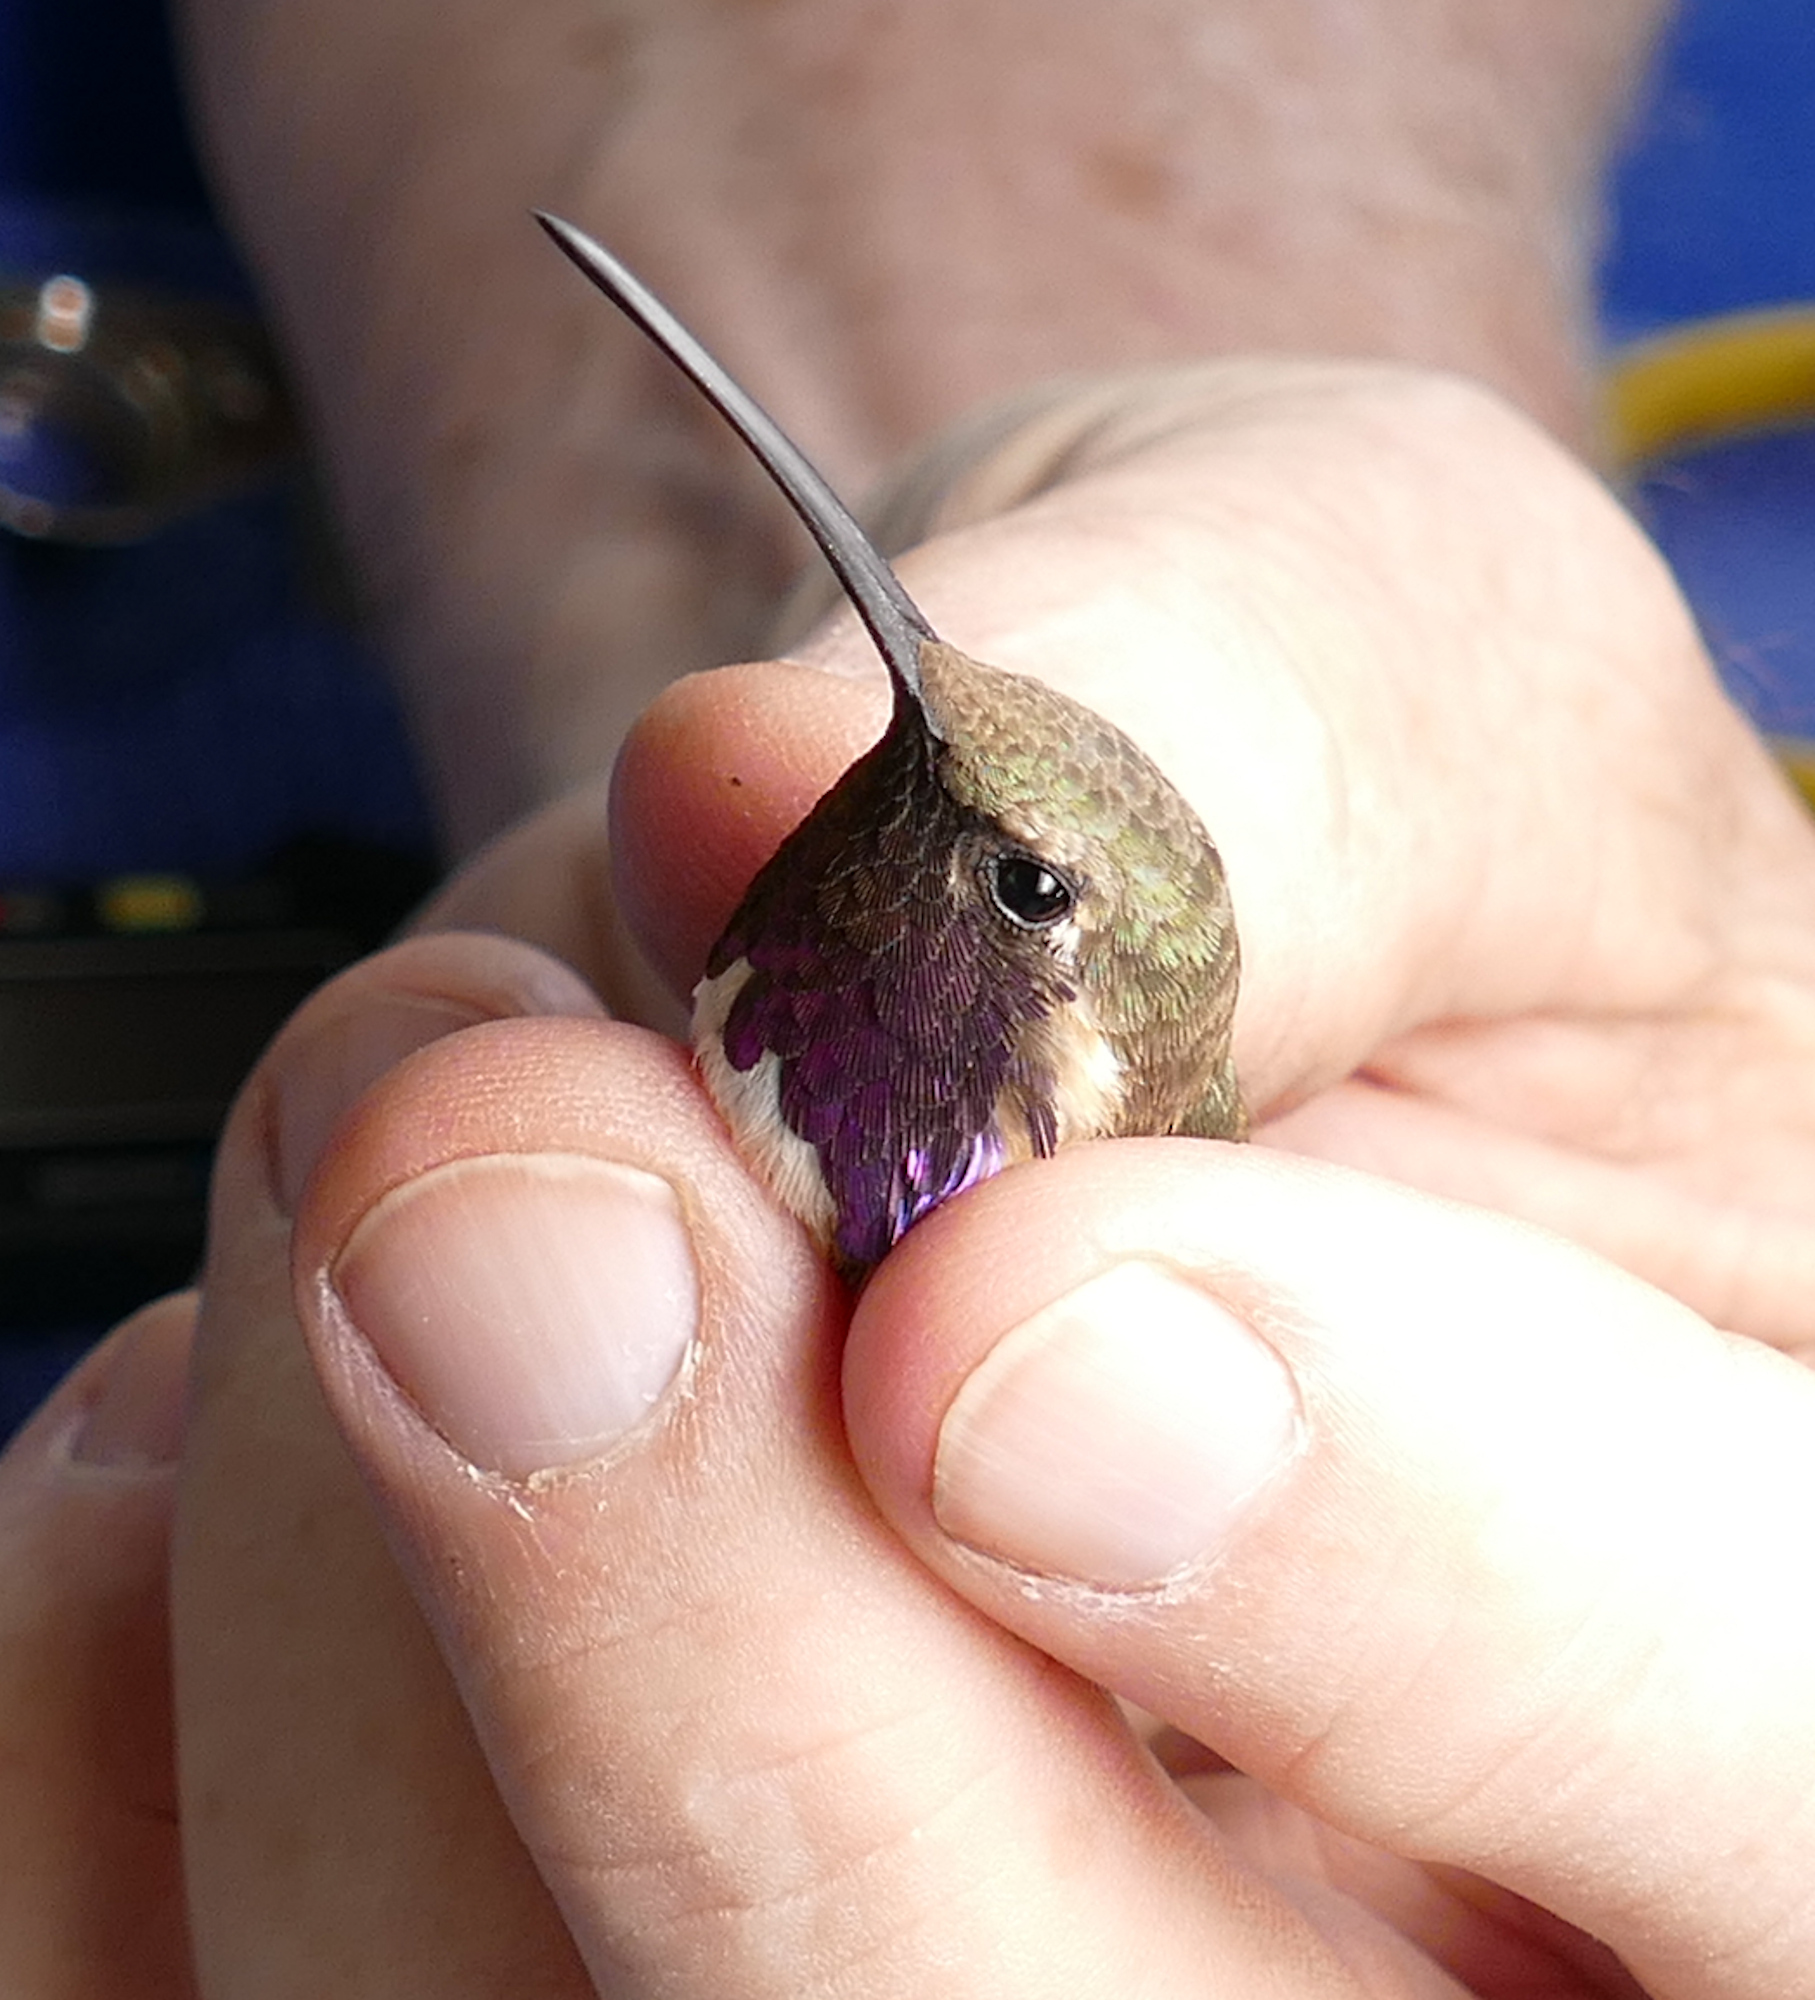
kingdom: Animalia
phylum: Chordata
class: Aves
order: Apodiformes
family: Trochilidae
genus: Calothorax
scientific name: Calothorax lucifer
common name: Lucifer sheartail
